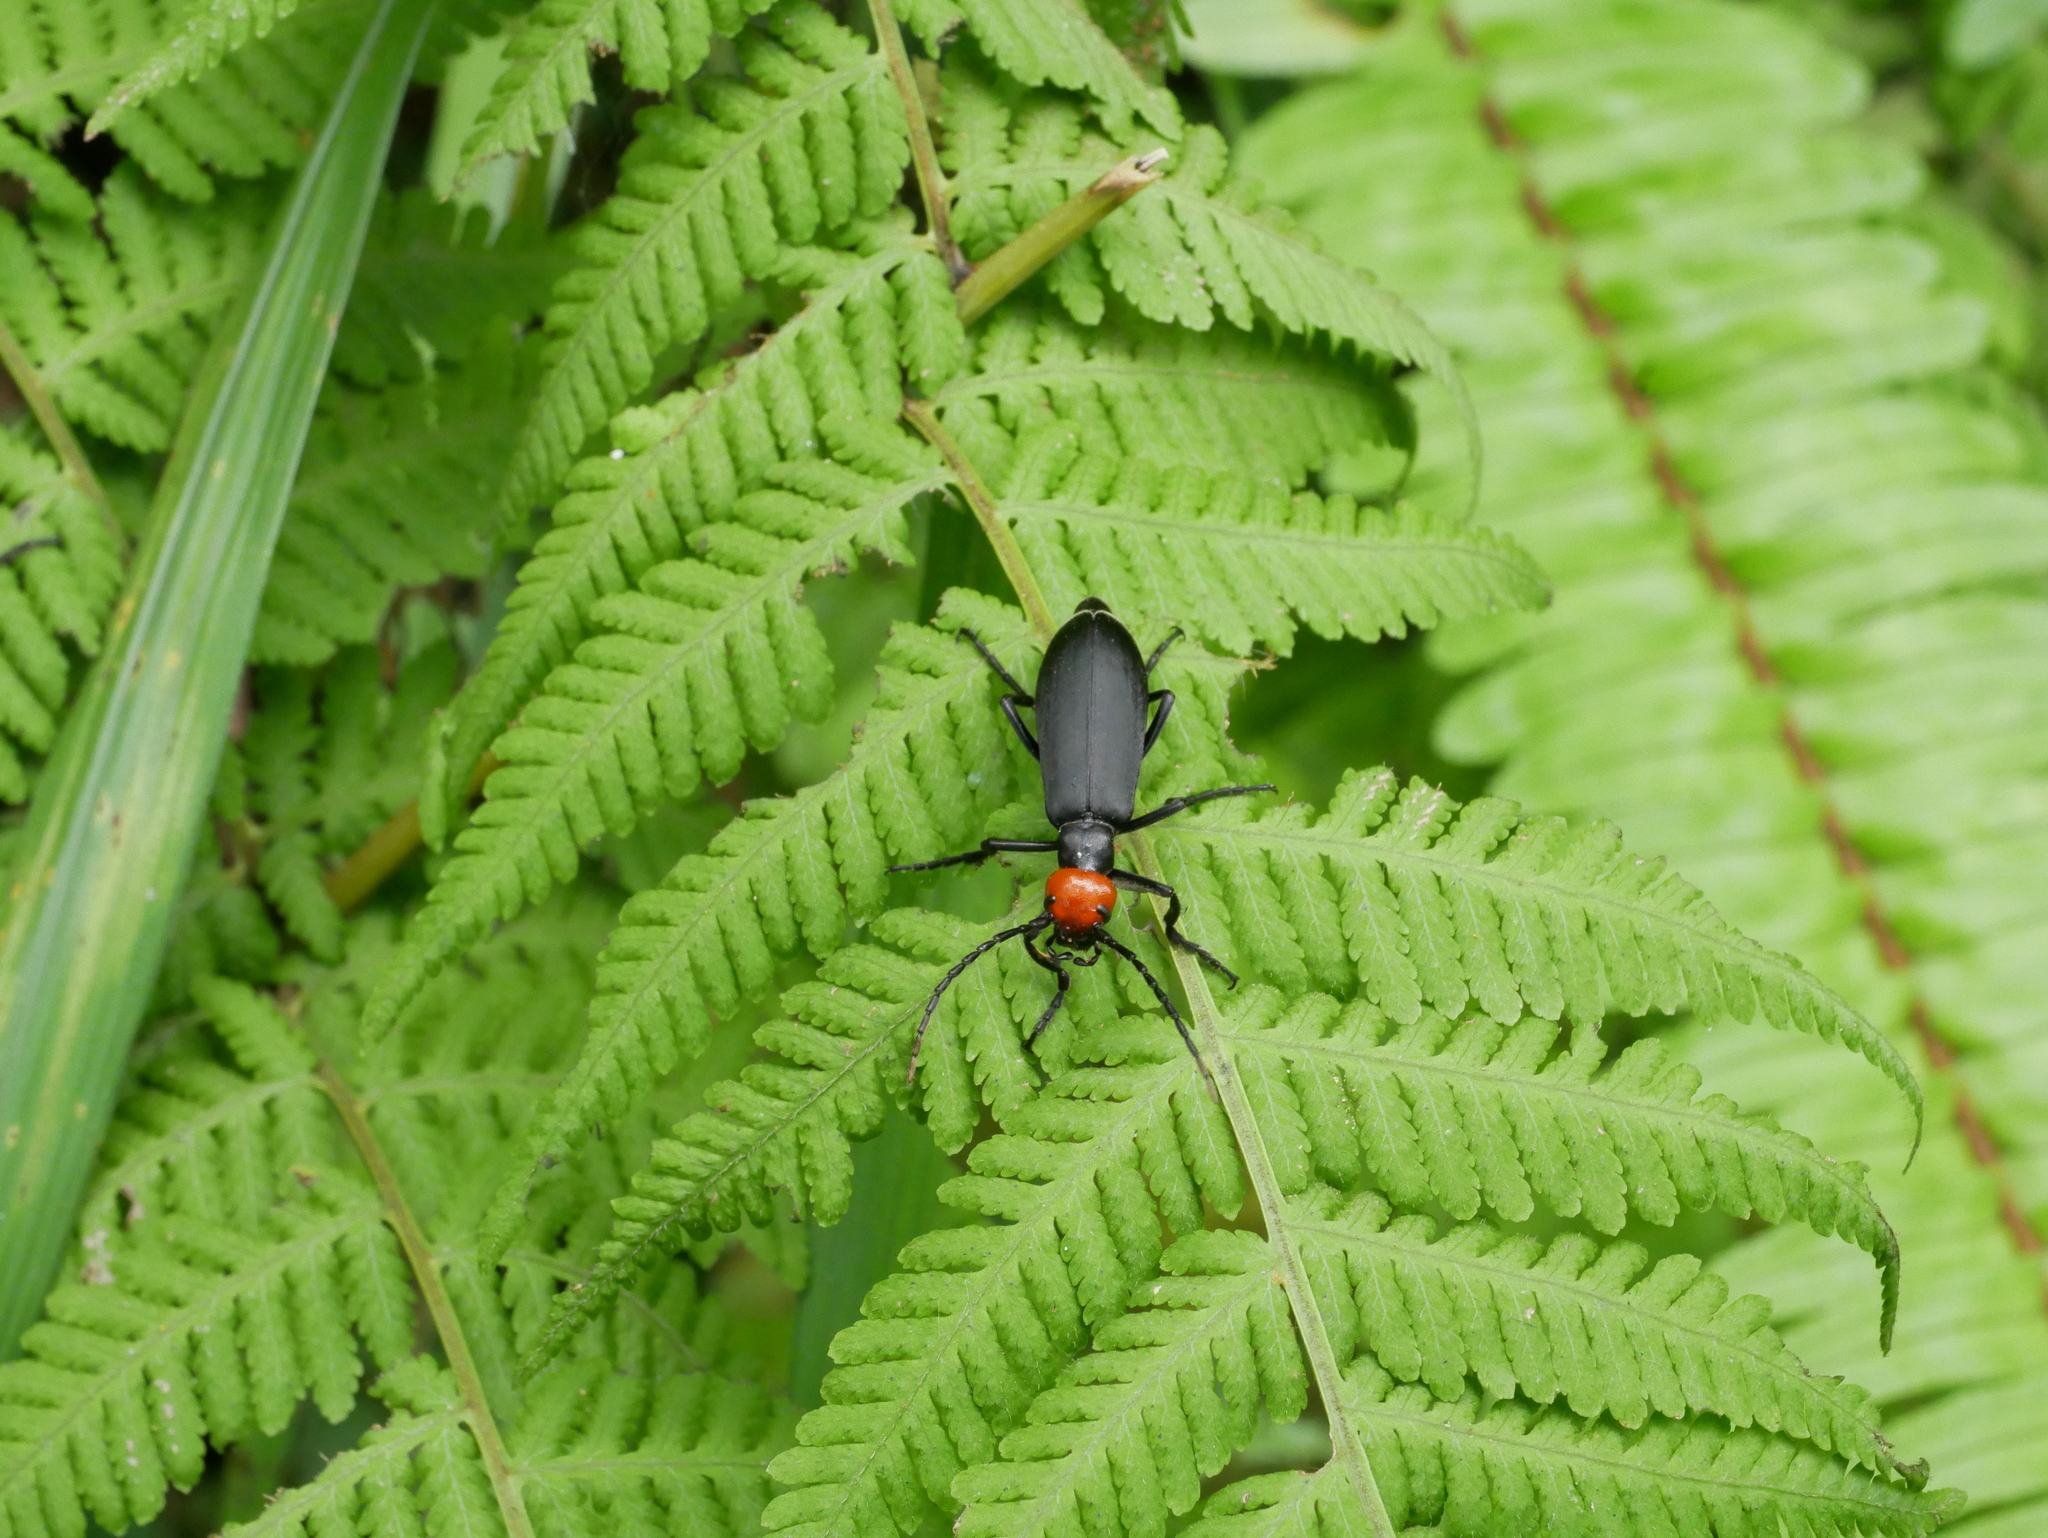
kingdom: Animalia
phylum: Arthropoda
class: Insecta
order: Coleoptera
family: Meloidae
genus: Epicauta
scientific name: Epicauta hirticornis
